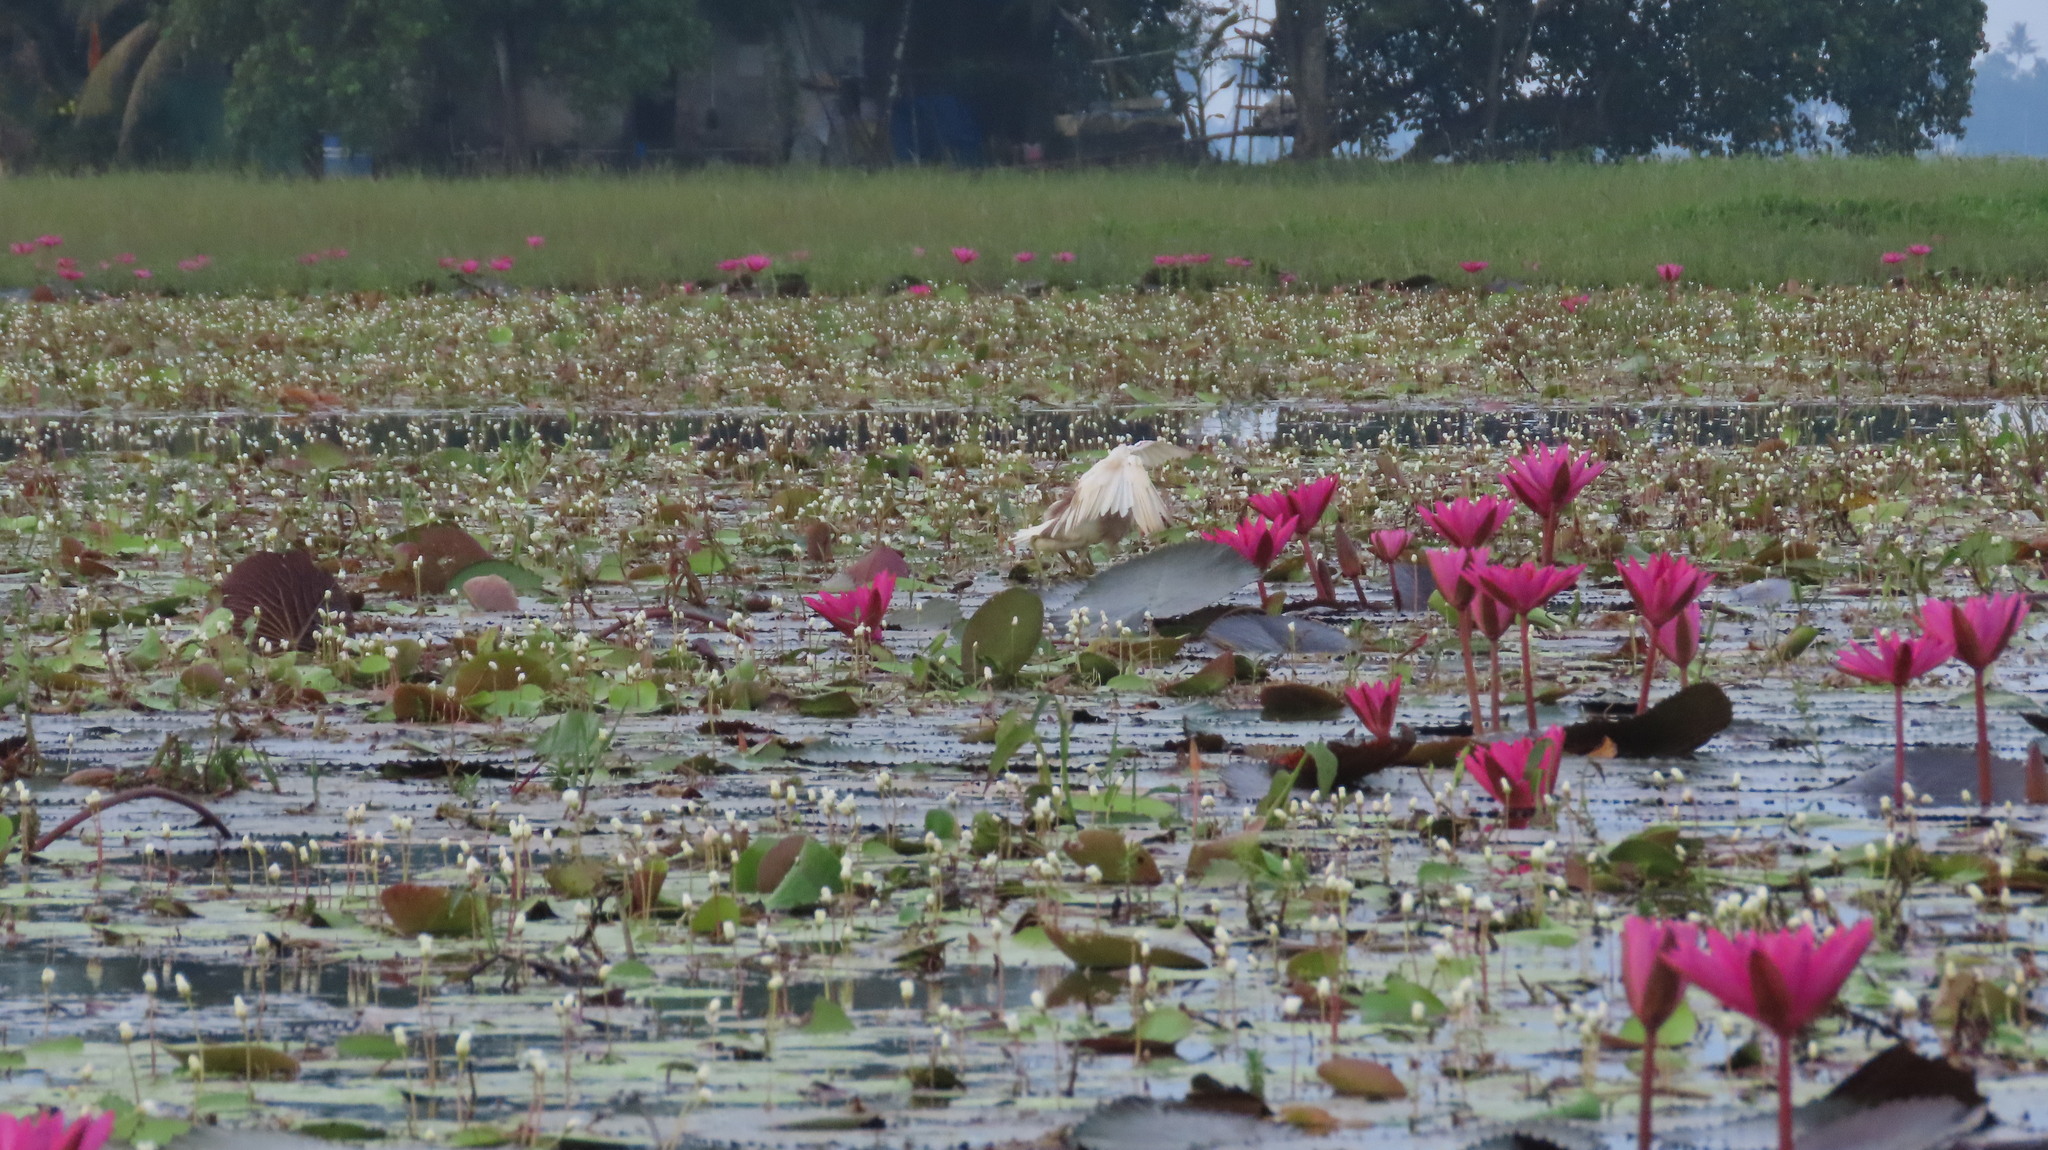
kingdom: Animalia
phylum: Chordata
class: Aves
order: Pelecaniformes
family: Ardeidae
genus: Ardeola
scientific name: Ardeola grayii
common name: Indian pond heron
